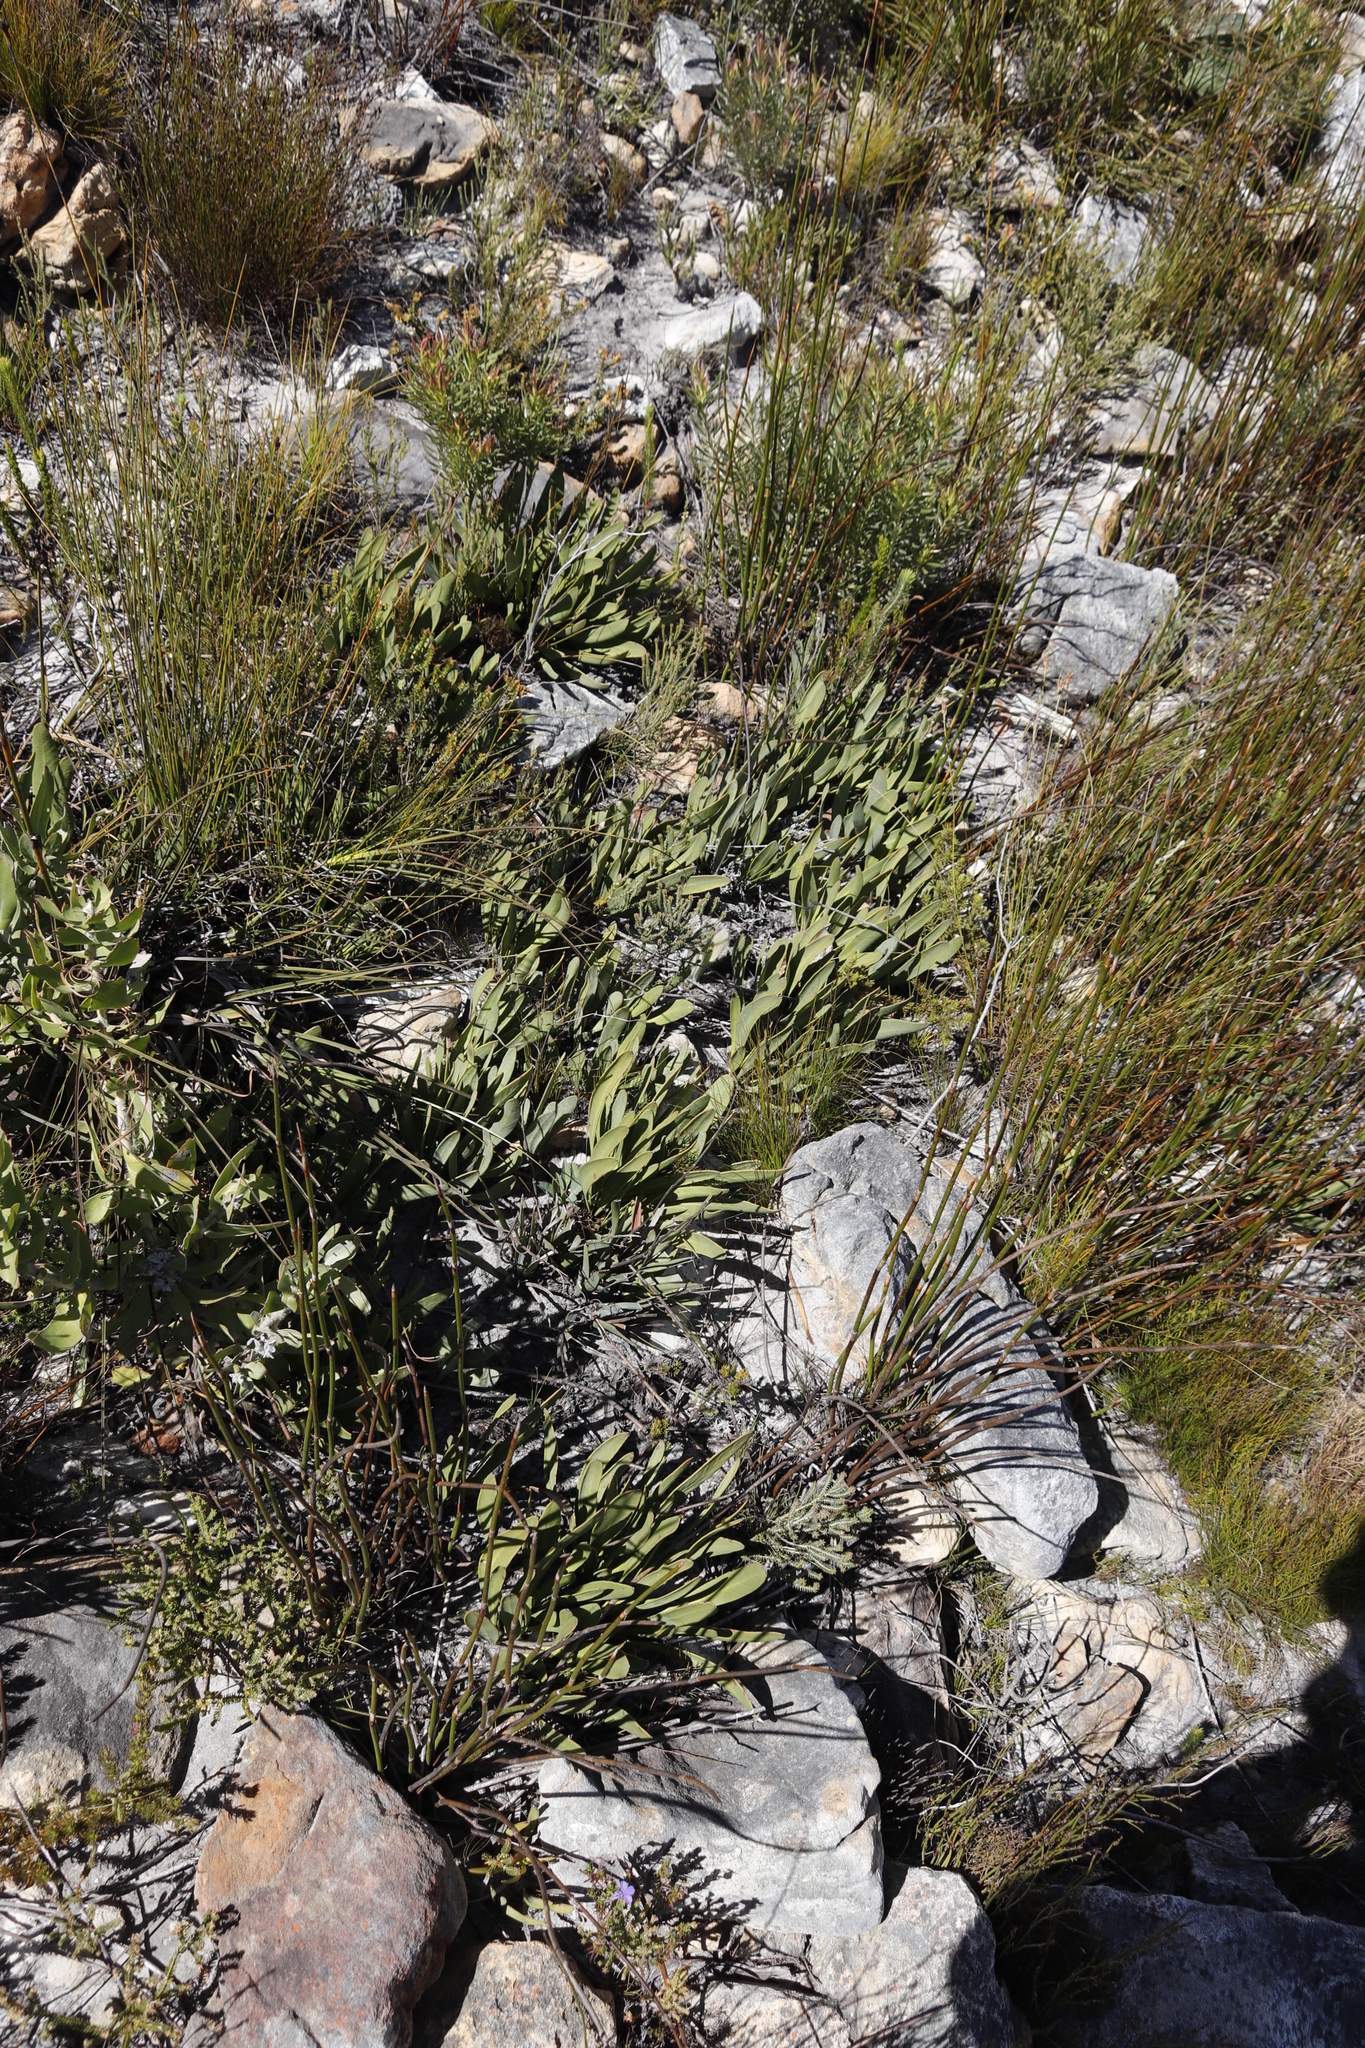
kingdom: Plantae
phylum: Tracheophyta
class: Magnoliopsida
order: Proteales
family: Proteaceae
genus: Protea
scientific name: Protea scabra
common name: Sandpaper-leaf sugarbush
